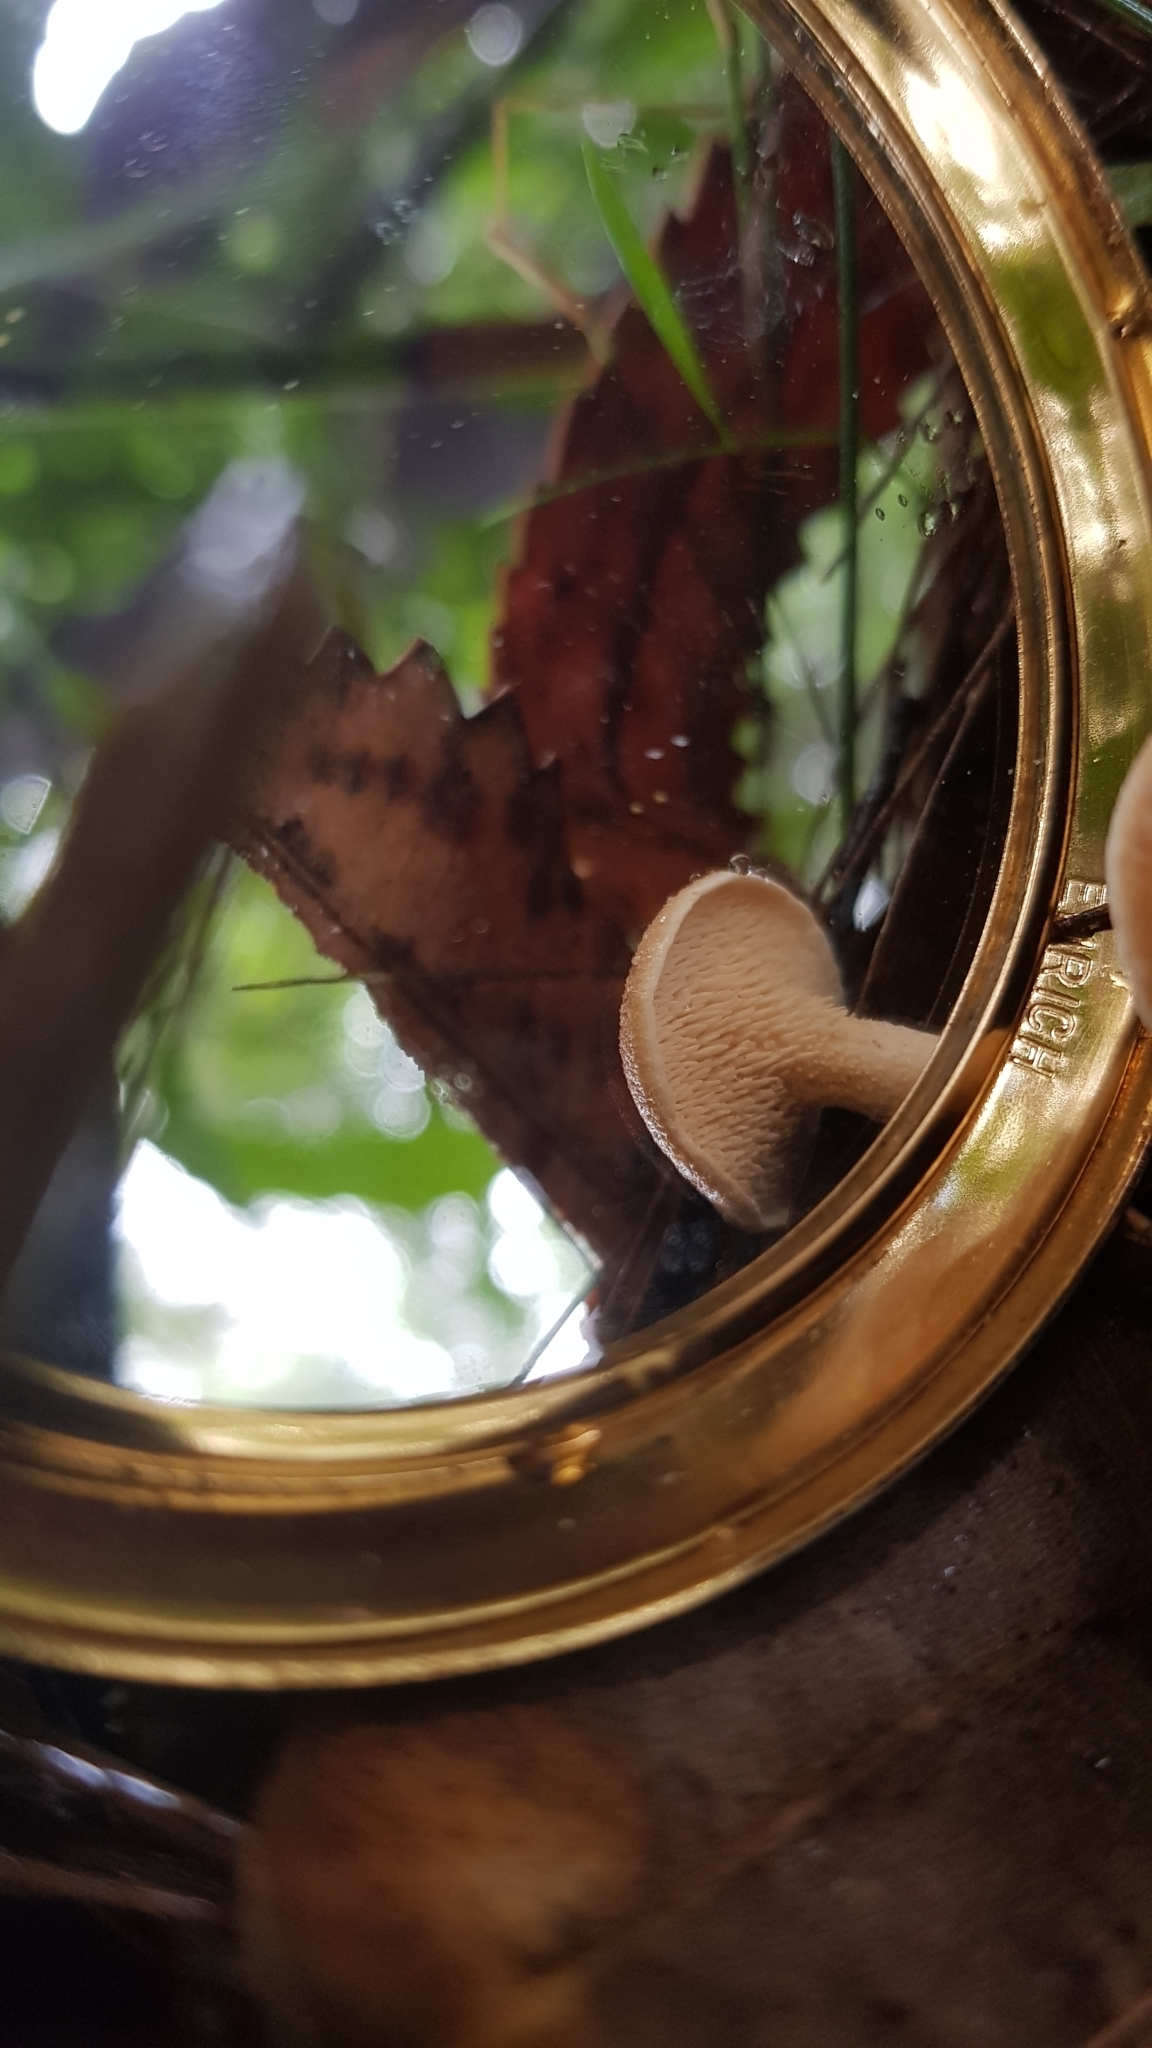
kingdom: Fungi
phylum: Basidiomycota
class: Agaricomycetes
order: Cantharellales
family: Hydnaceae
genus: Hydnum
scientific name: Hydnum ambustum
